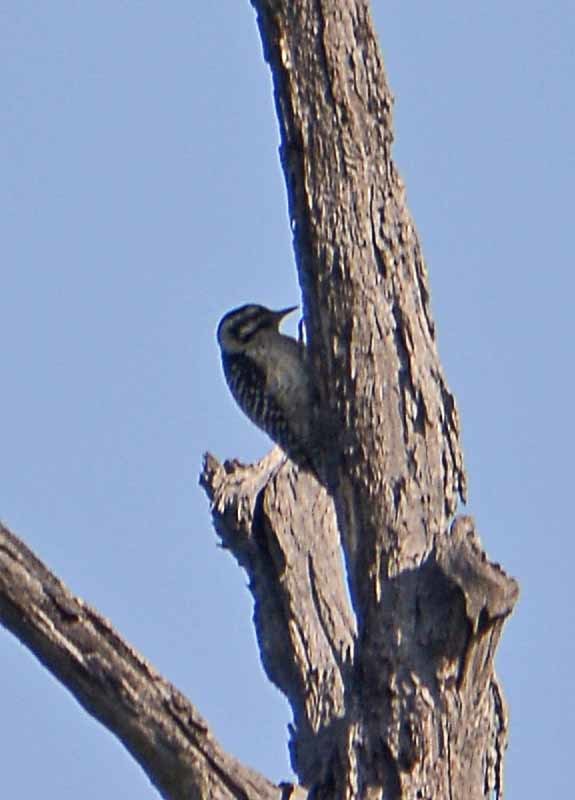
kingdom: Animalia
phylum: Chordata
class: Aves
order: Piciformes
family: Picidae
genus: Dryobates
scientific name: Dryobates scalaris
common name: Ladder-backed woodpecker
